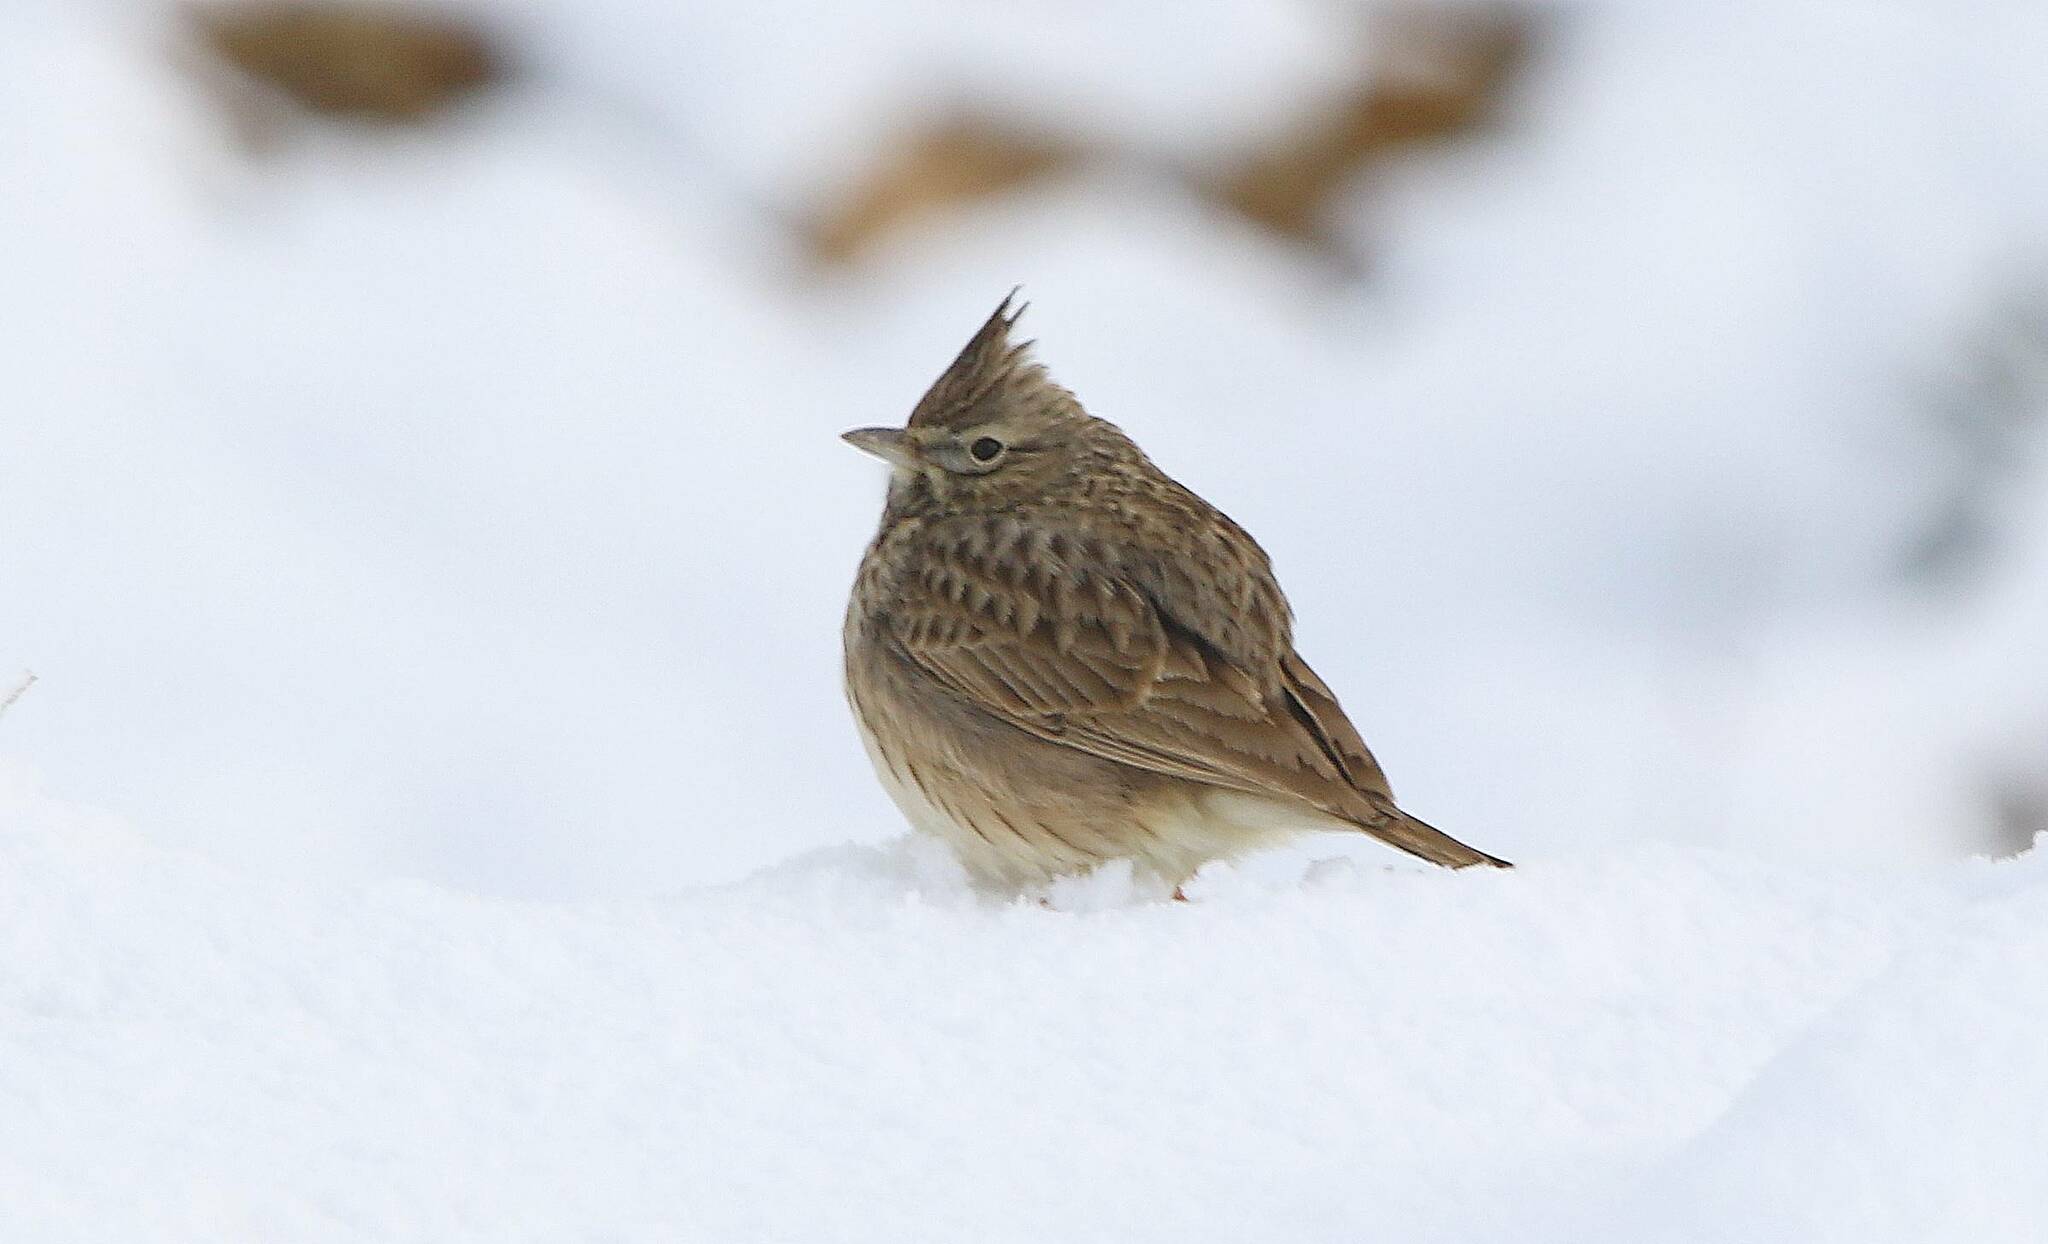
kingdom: Animalia
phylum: Chordata
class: Aves
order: Passeriformes
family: Alaudidae
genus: Galerida
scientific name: Galerida cristata
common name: Crested lark
